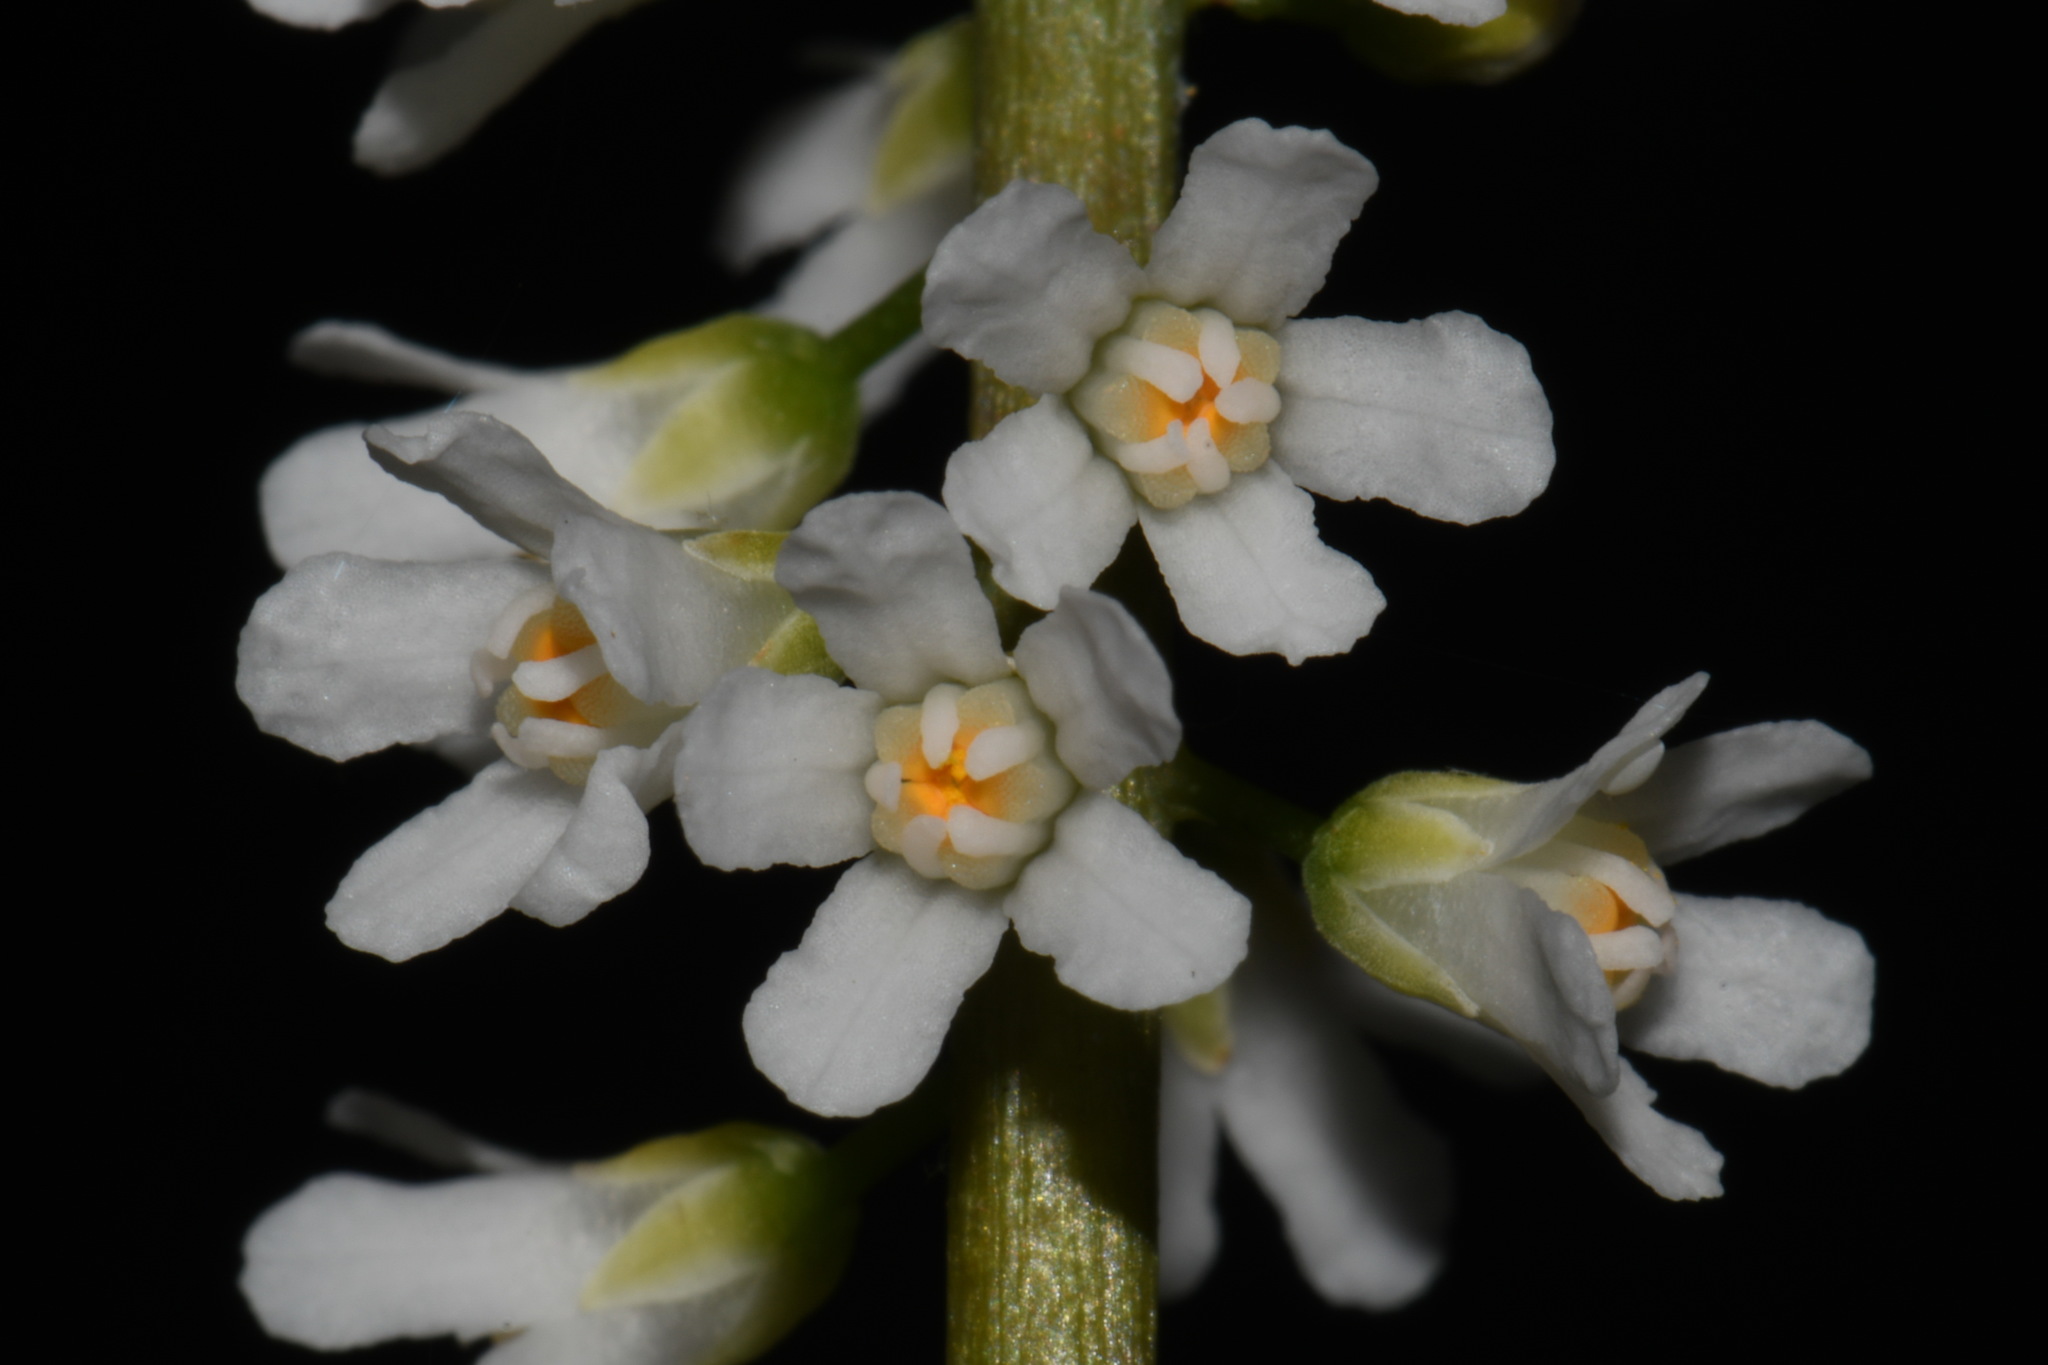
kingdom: Plantae
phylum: Tracheophyta
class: Magnoliopsida
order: Ericales
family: Diapensiaceae
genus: Galax
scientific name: Galax urceolata
